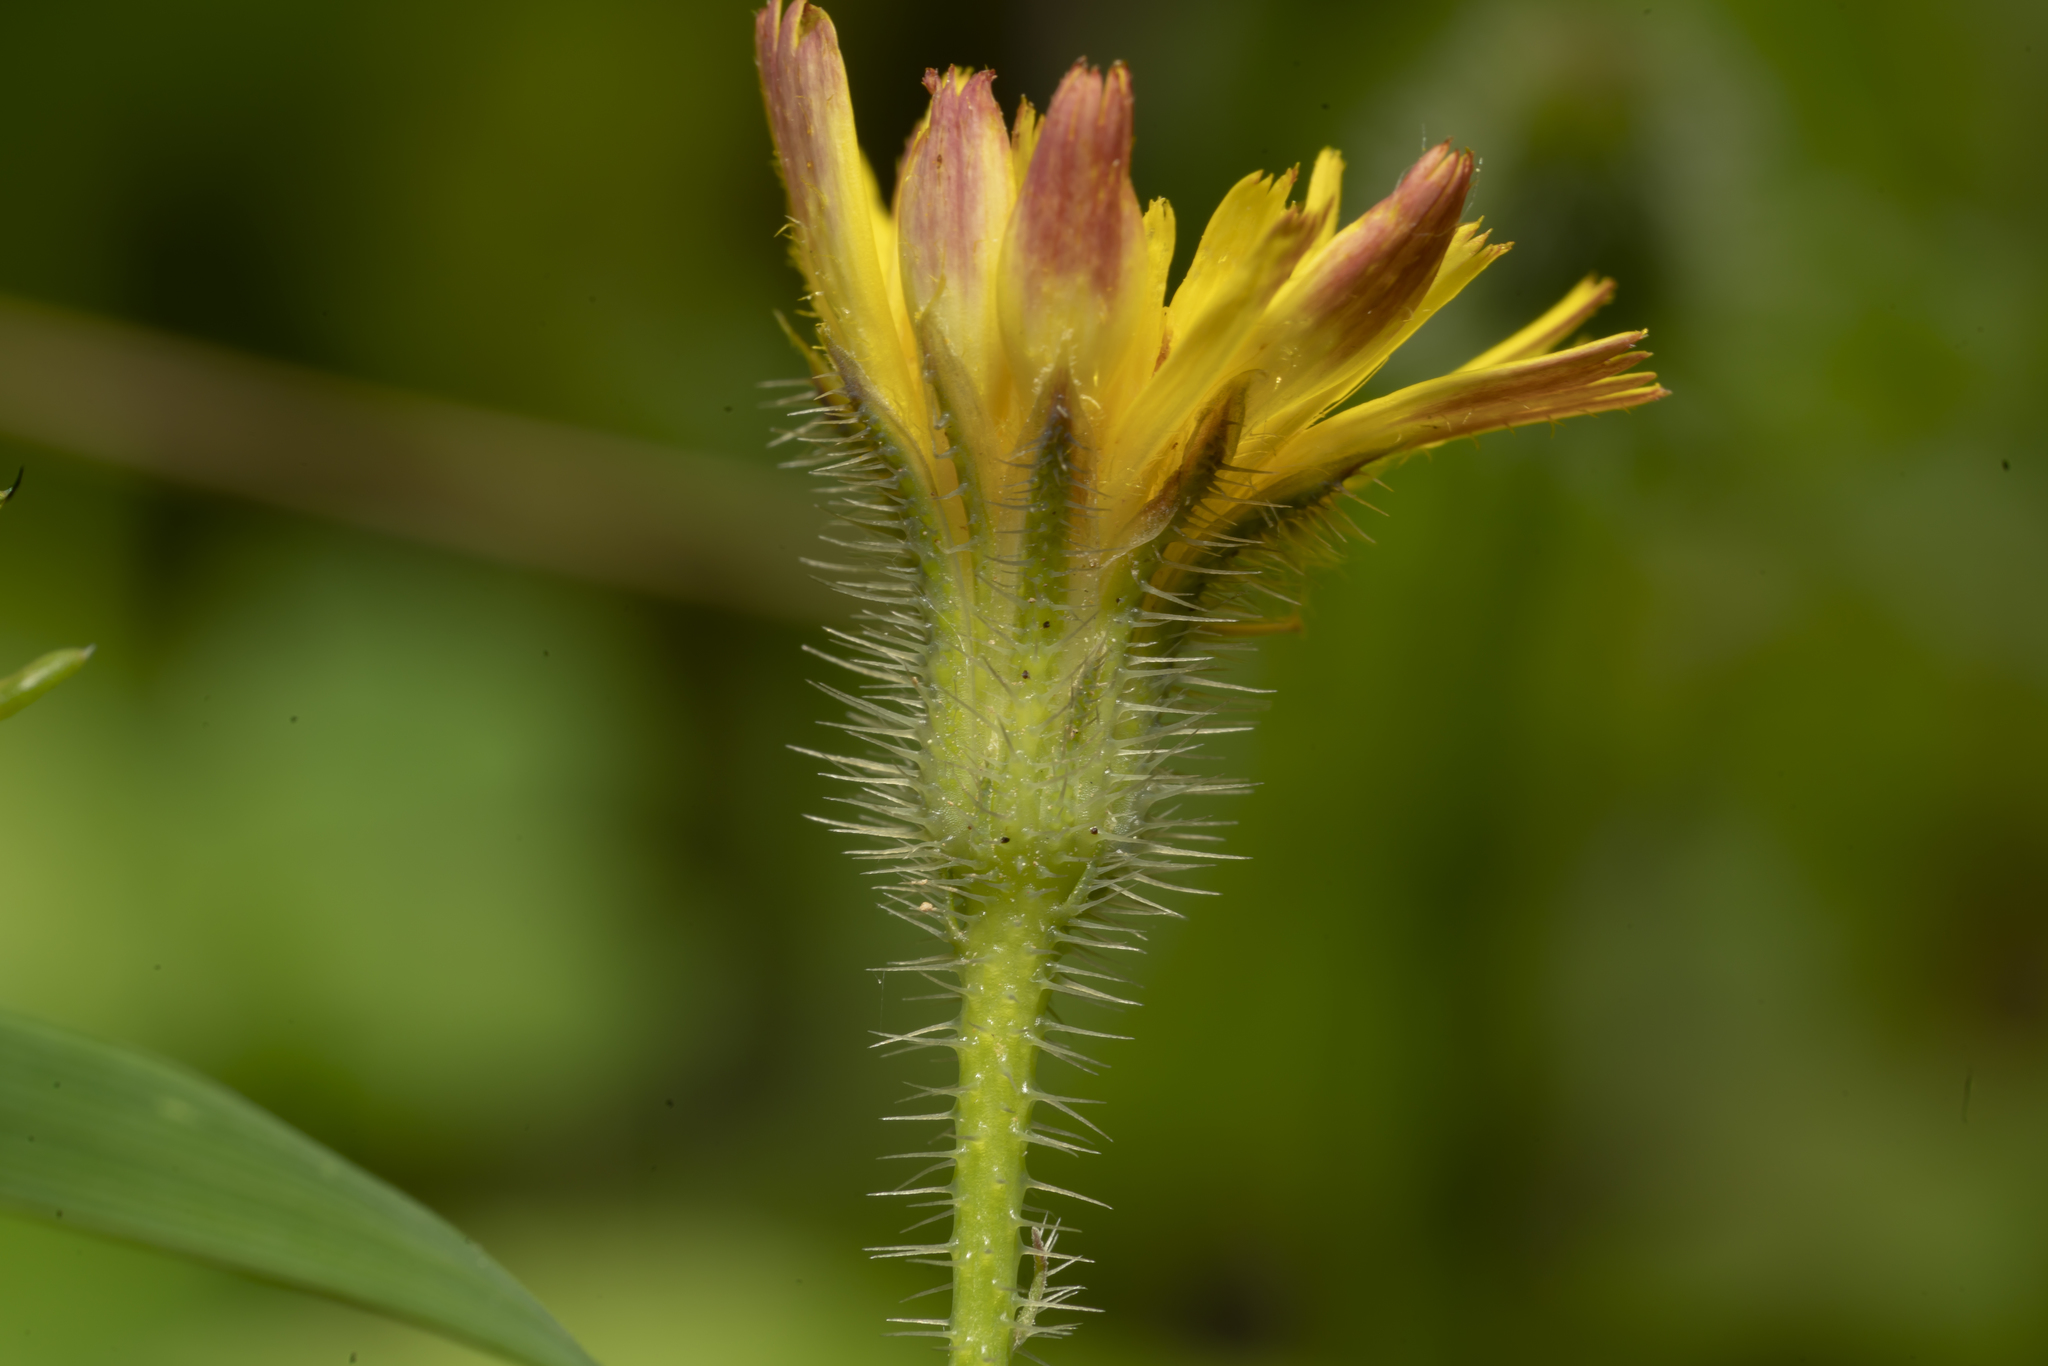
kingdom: Plantae
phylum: Tracheophyta
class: Magnoliopsida
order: Asterales
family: Asteraceae
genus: Achyrophorus
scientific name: Achyrophorus valdesii
